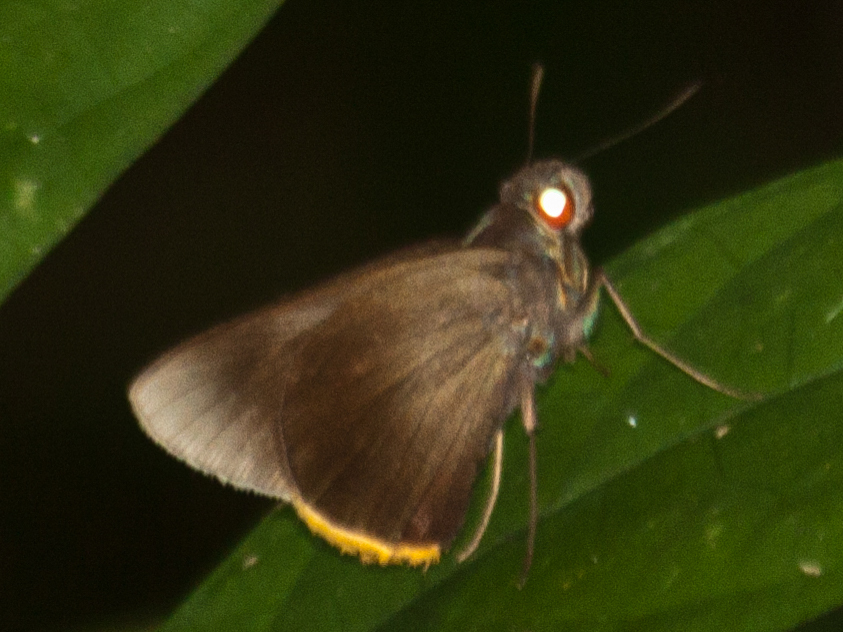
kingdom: Animalia
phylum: Arthropoda
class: Insecta
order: Lepidoptera
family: Hesperiidae
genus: Matapa
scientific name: Matapa cresta
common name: Fringed redeye
